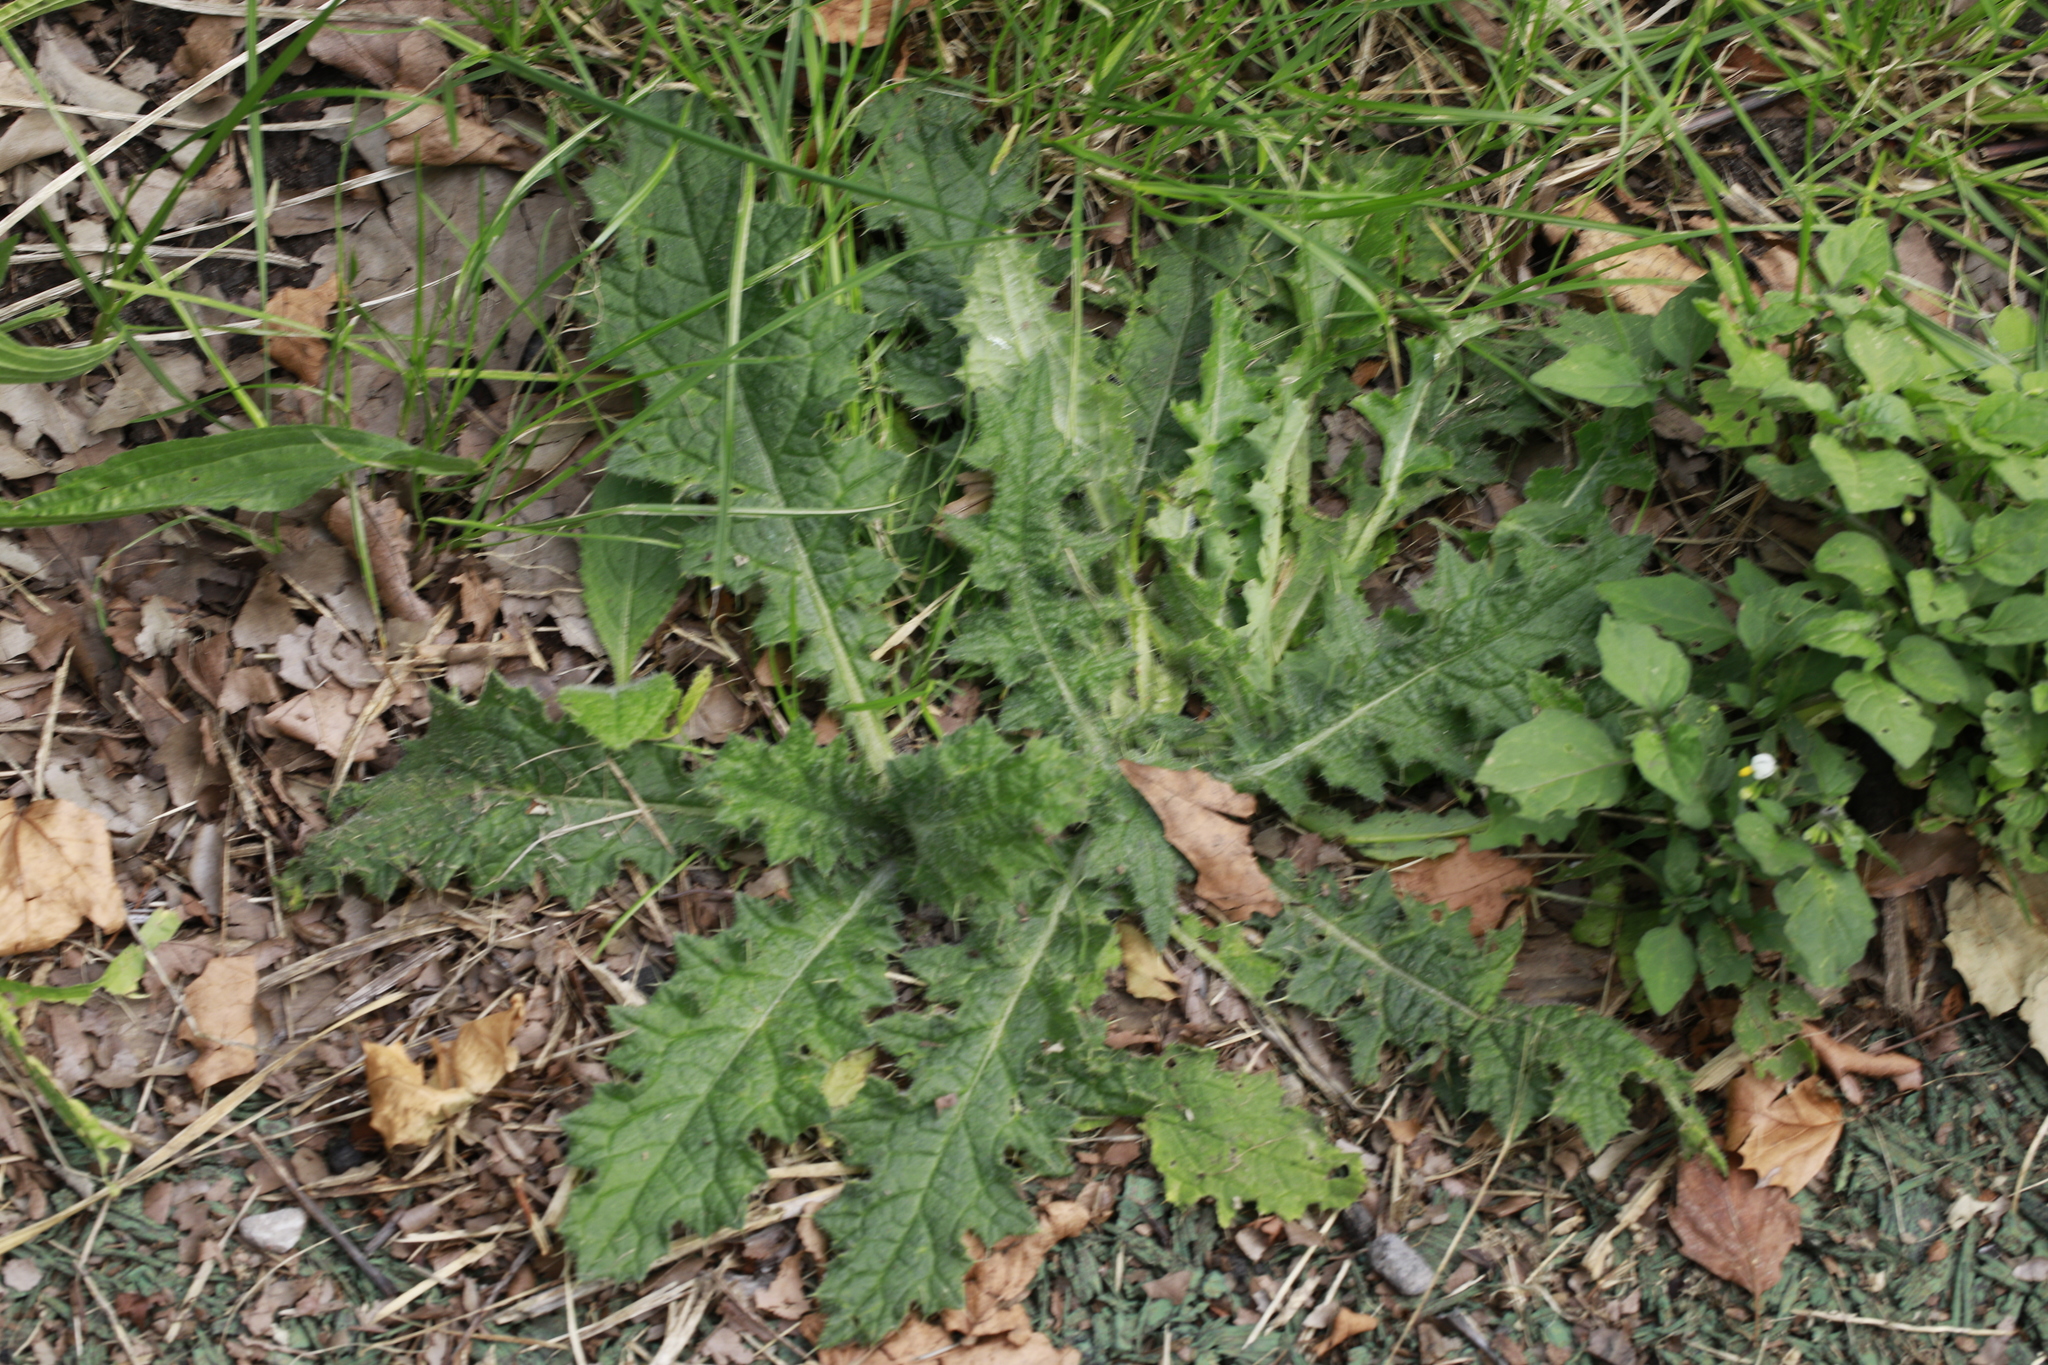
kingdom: Plantae
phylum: Tracheophyta
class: Magnoliopsida
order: Asterales
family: Asteraceae
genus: Cirsium
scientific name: Cirsium vulgare
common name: Bull thistle
